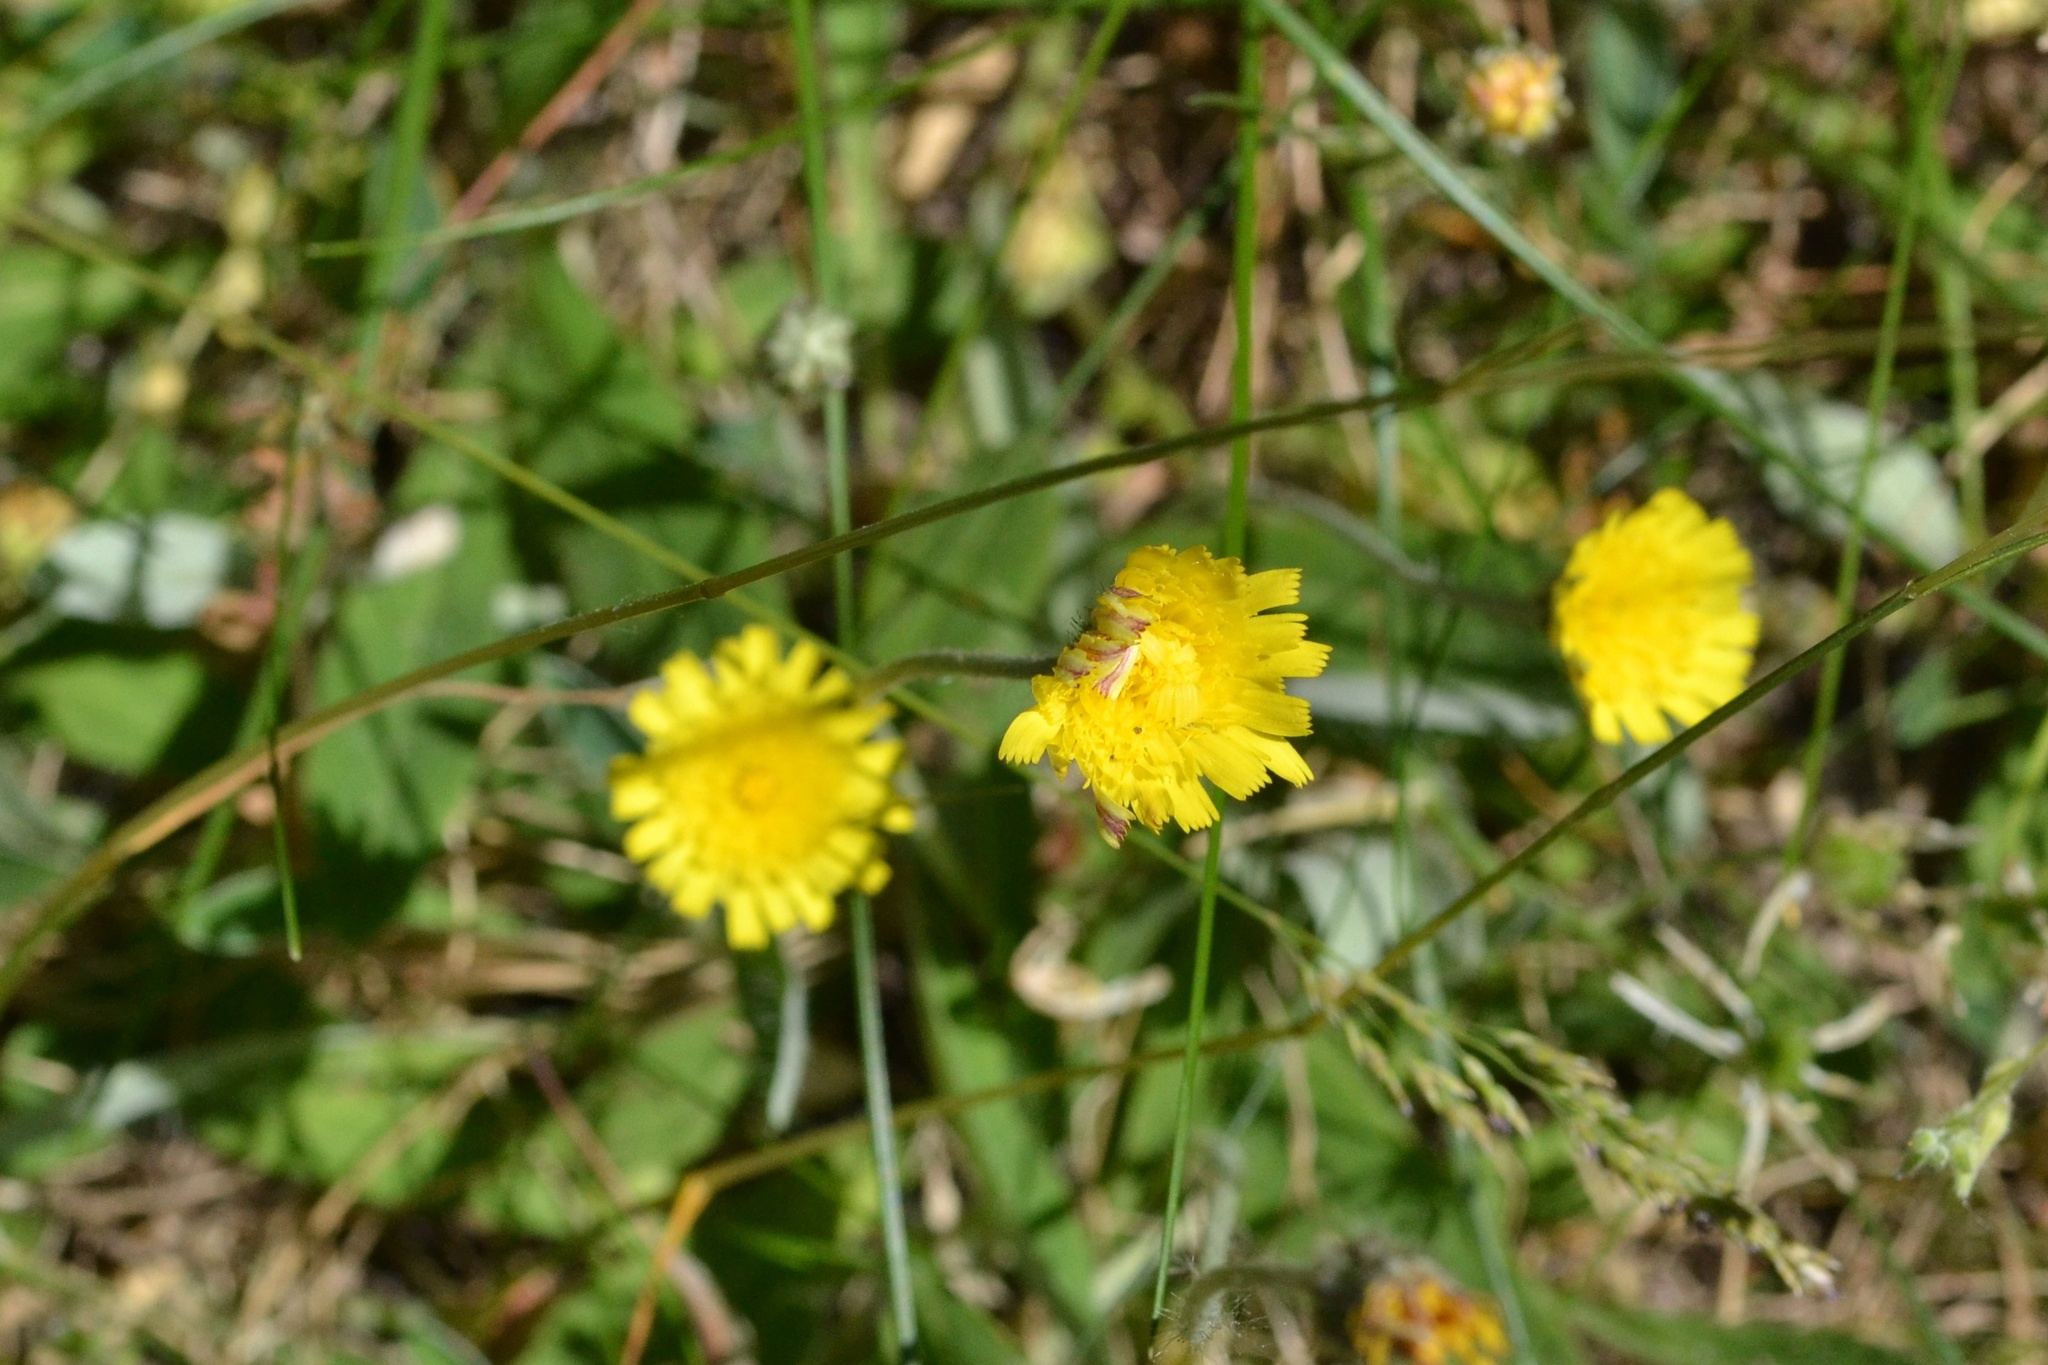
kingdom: Plantae
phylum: Tracheophyta
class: Magnoliopsida
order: Asterales
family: Asteraceae
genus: Pilosella
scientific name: Pilosella officinarum
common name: Mouse-ear hawkweed
